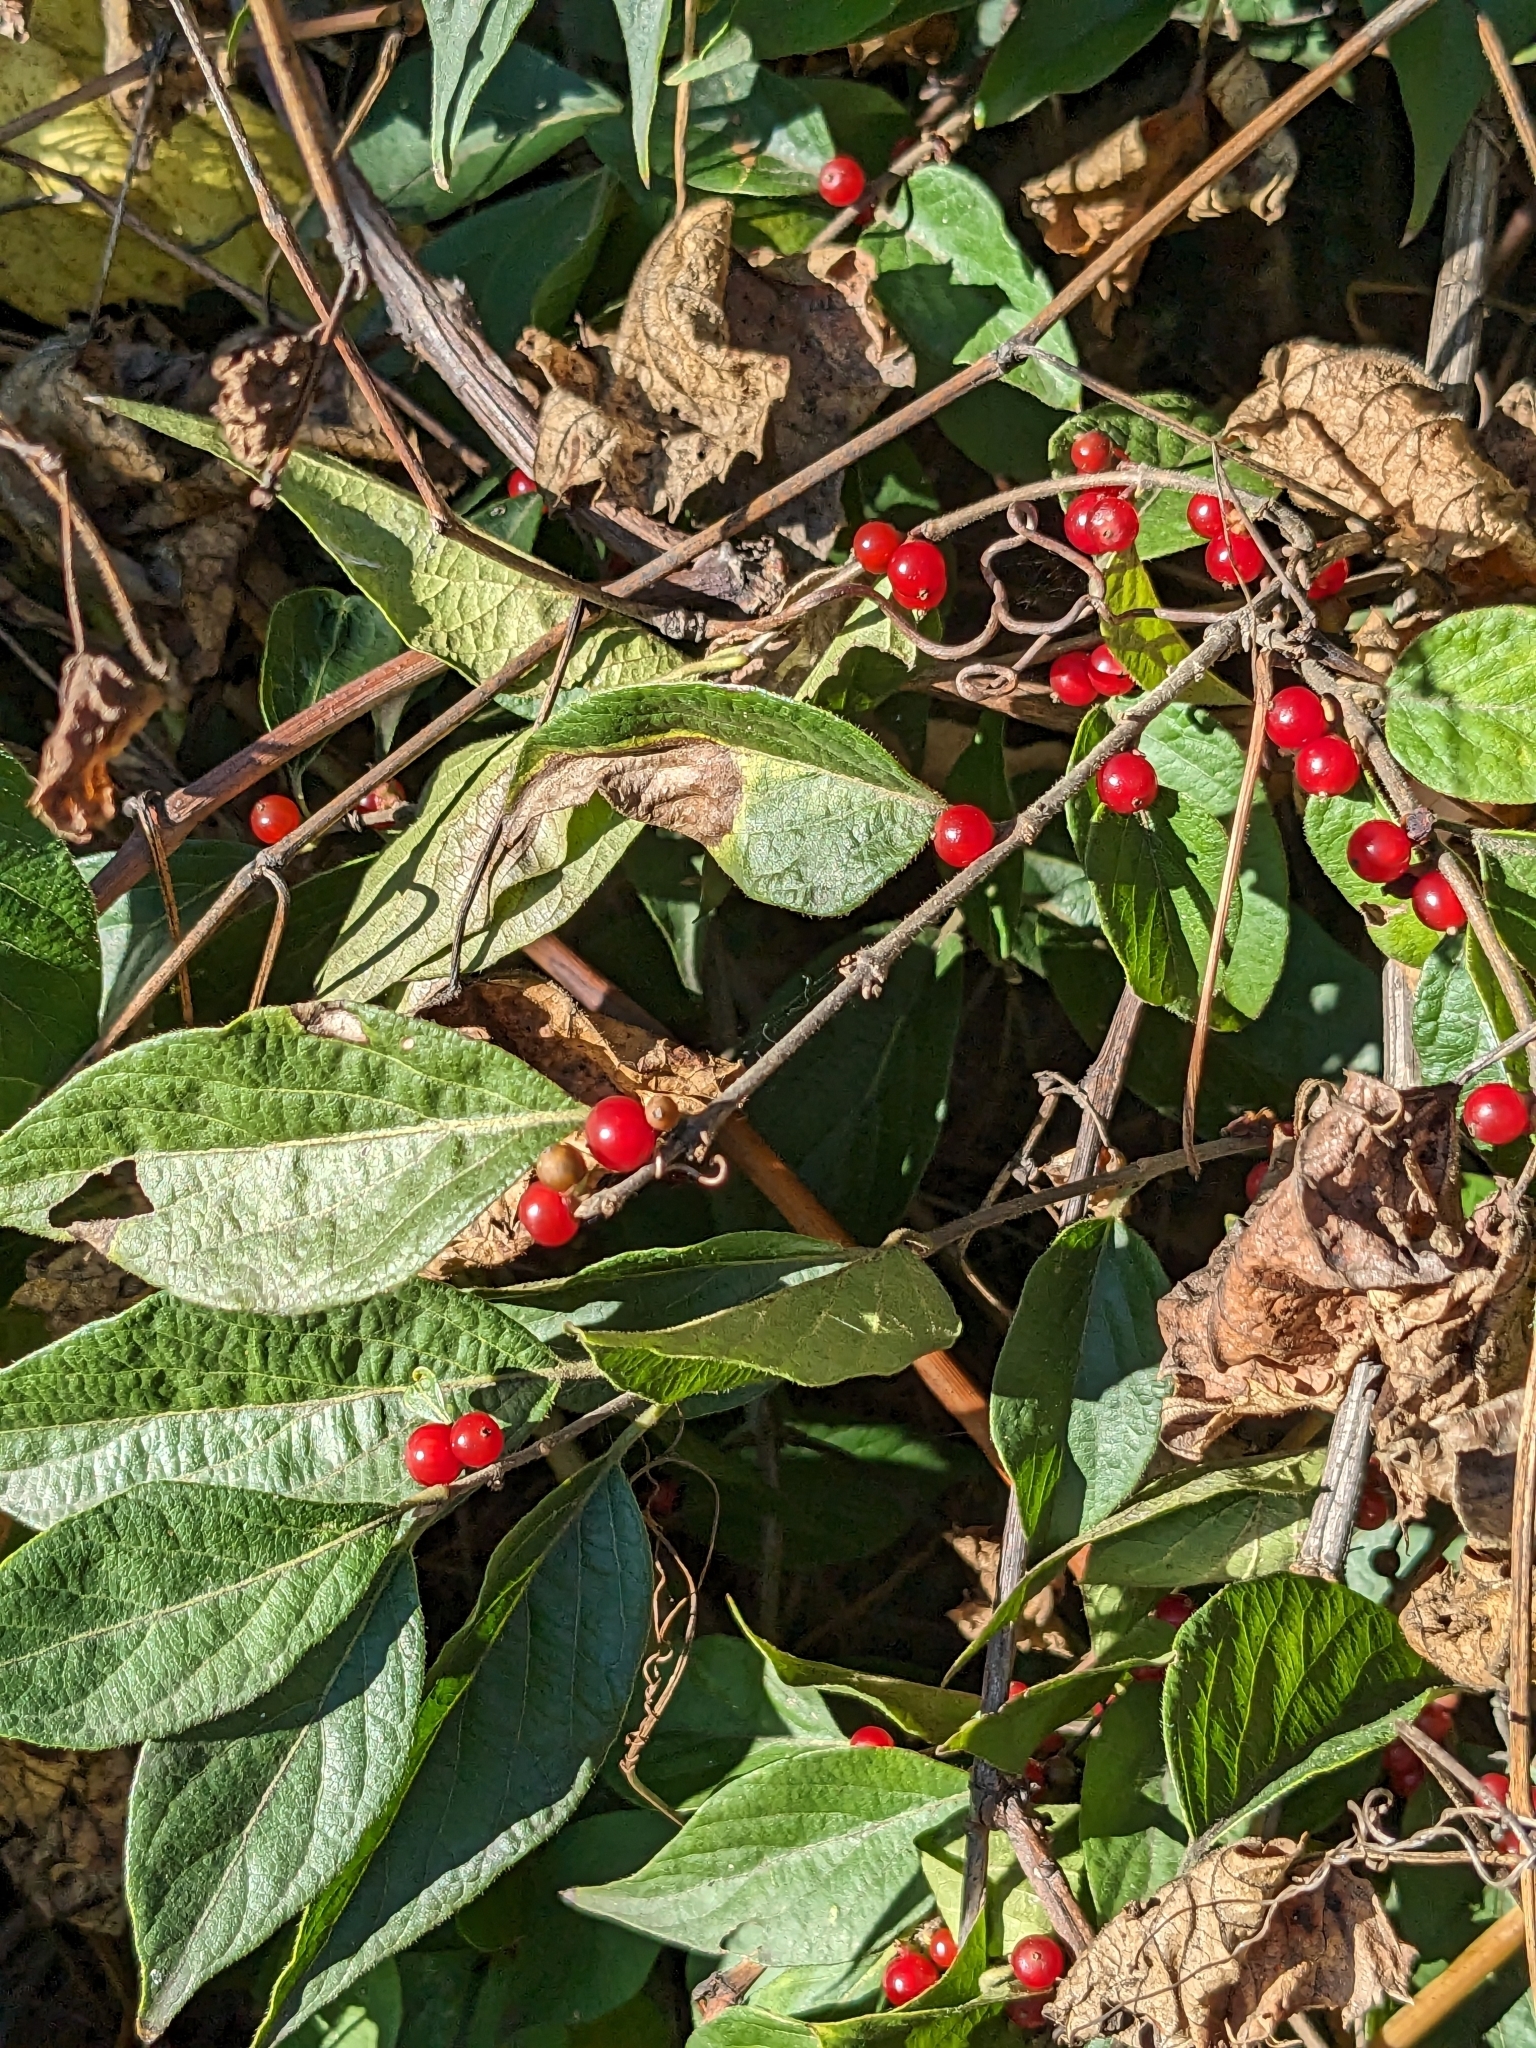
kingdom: Plantae
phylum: Tracheophyta
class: Magnoliopsida
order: Dipsacales
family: Caprifoliaceae
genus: Lonicera
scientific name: Lonicera maackii
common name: Amur honeysuckle
